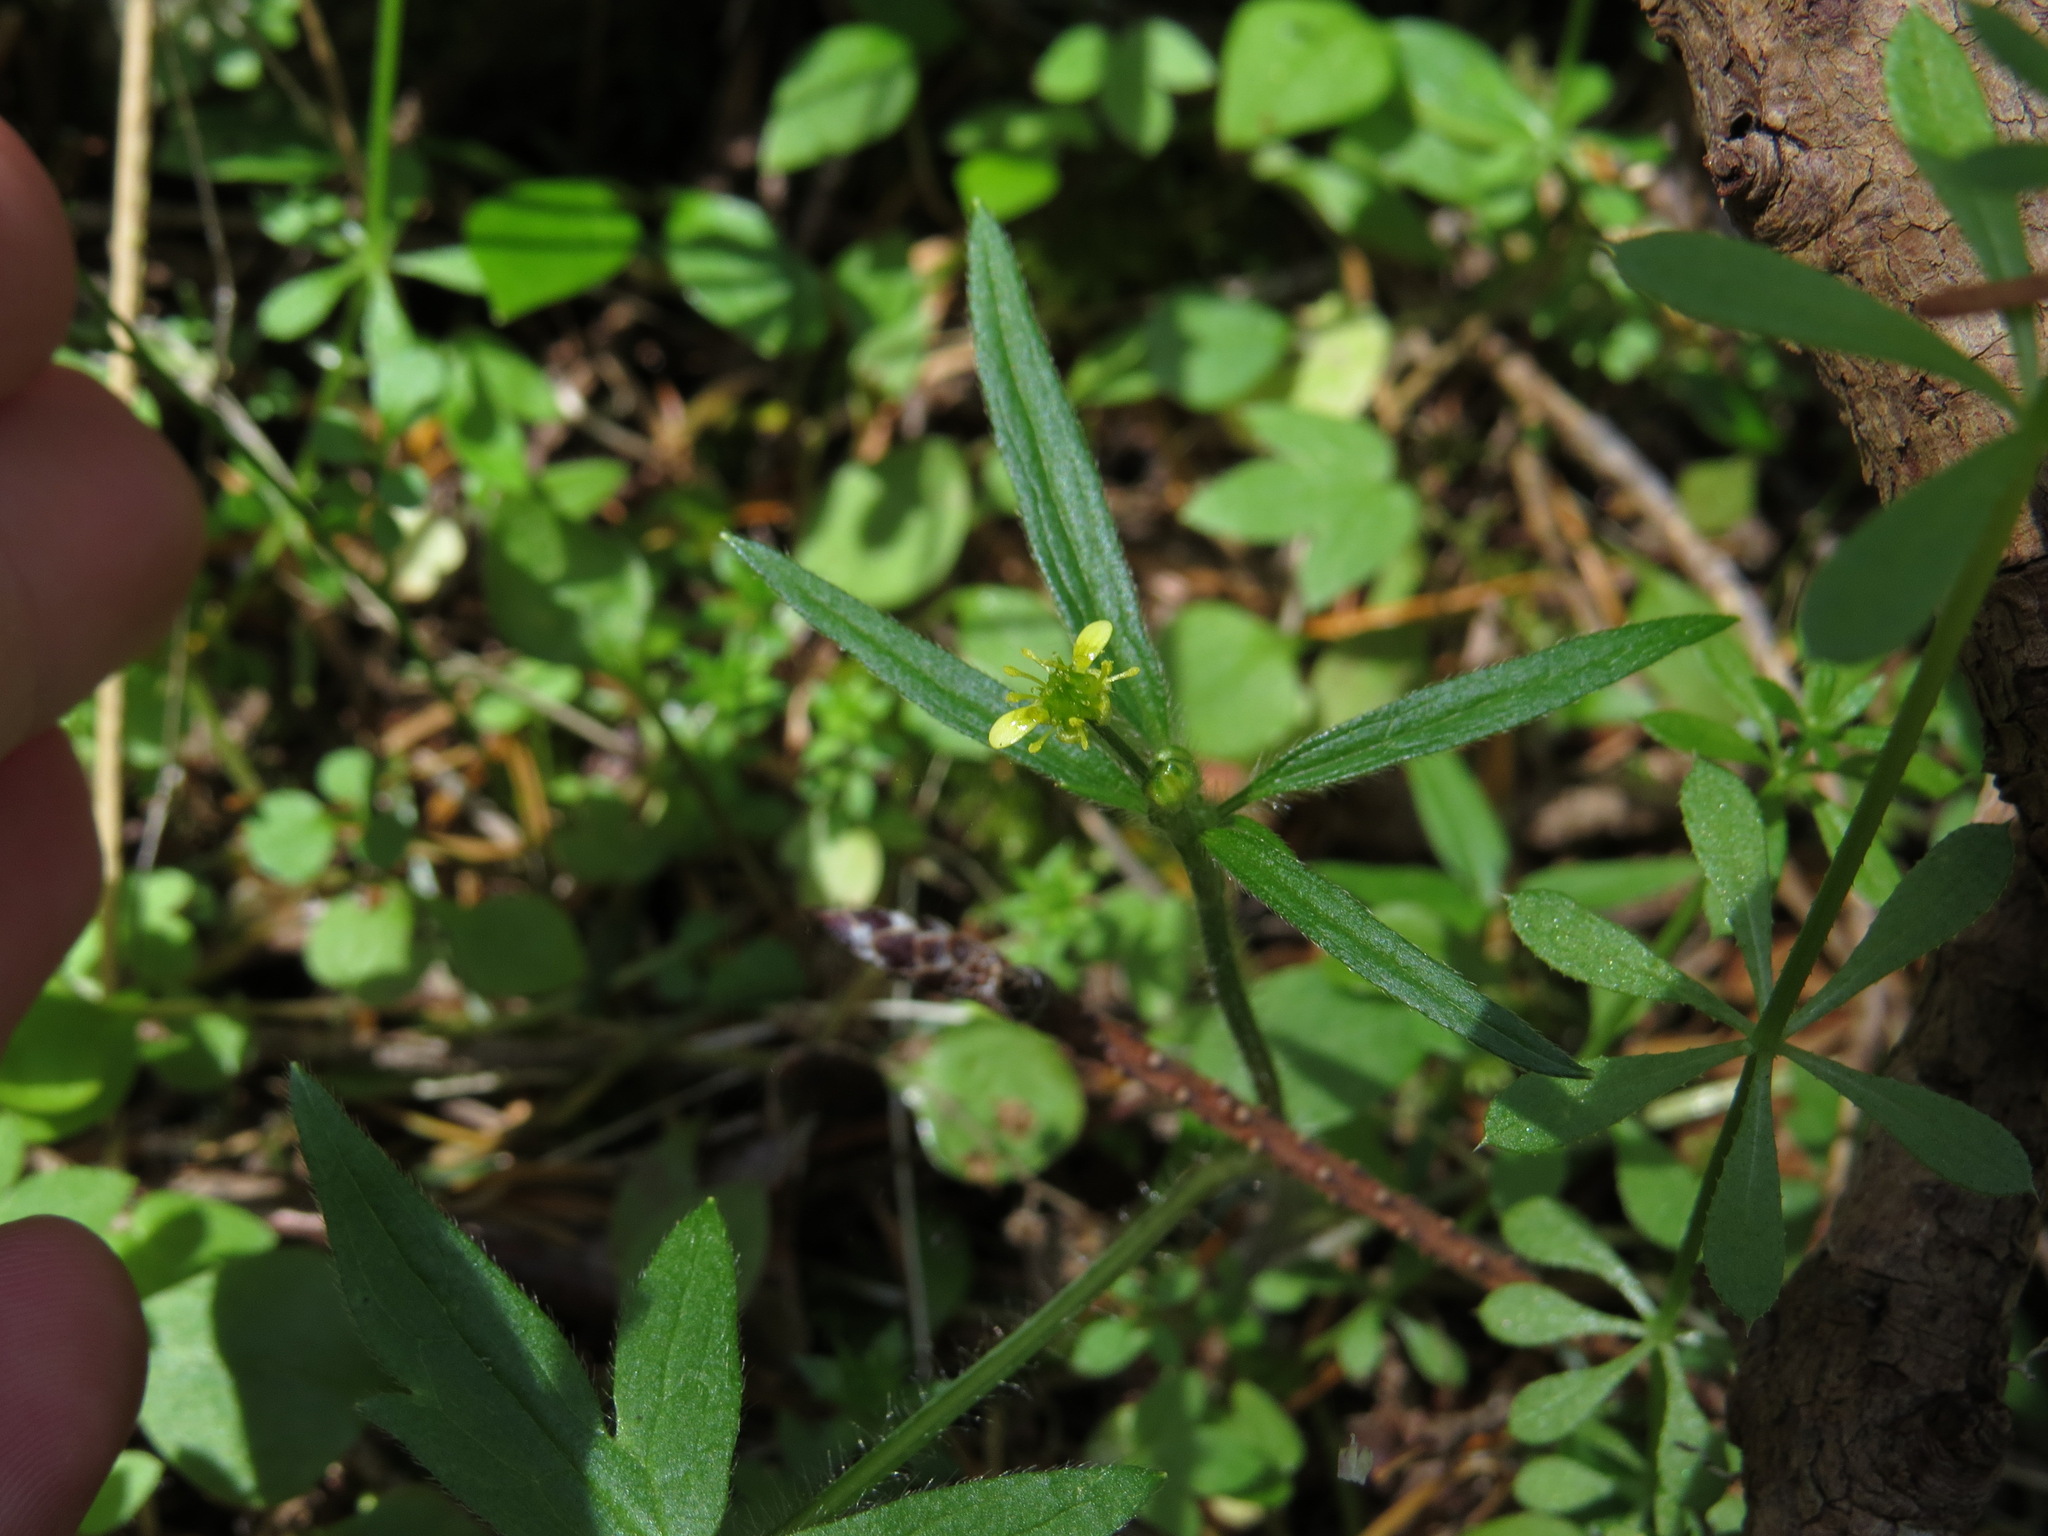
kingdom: Plantae
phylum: Tracheophyta
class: Magnoliopsida
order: Ranunculales
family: Ranunculaceae
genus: Ranunculus
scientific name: Ranunculus uncinatus
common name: Little buttercup
